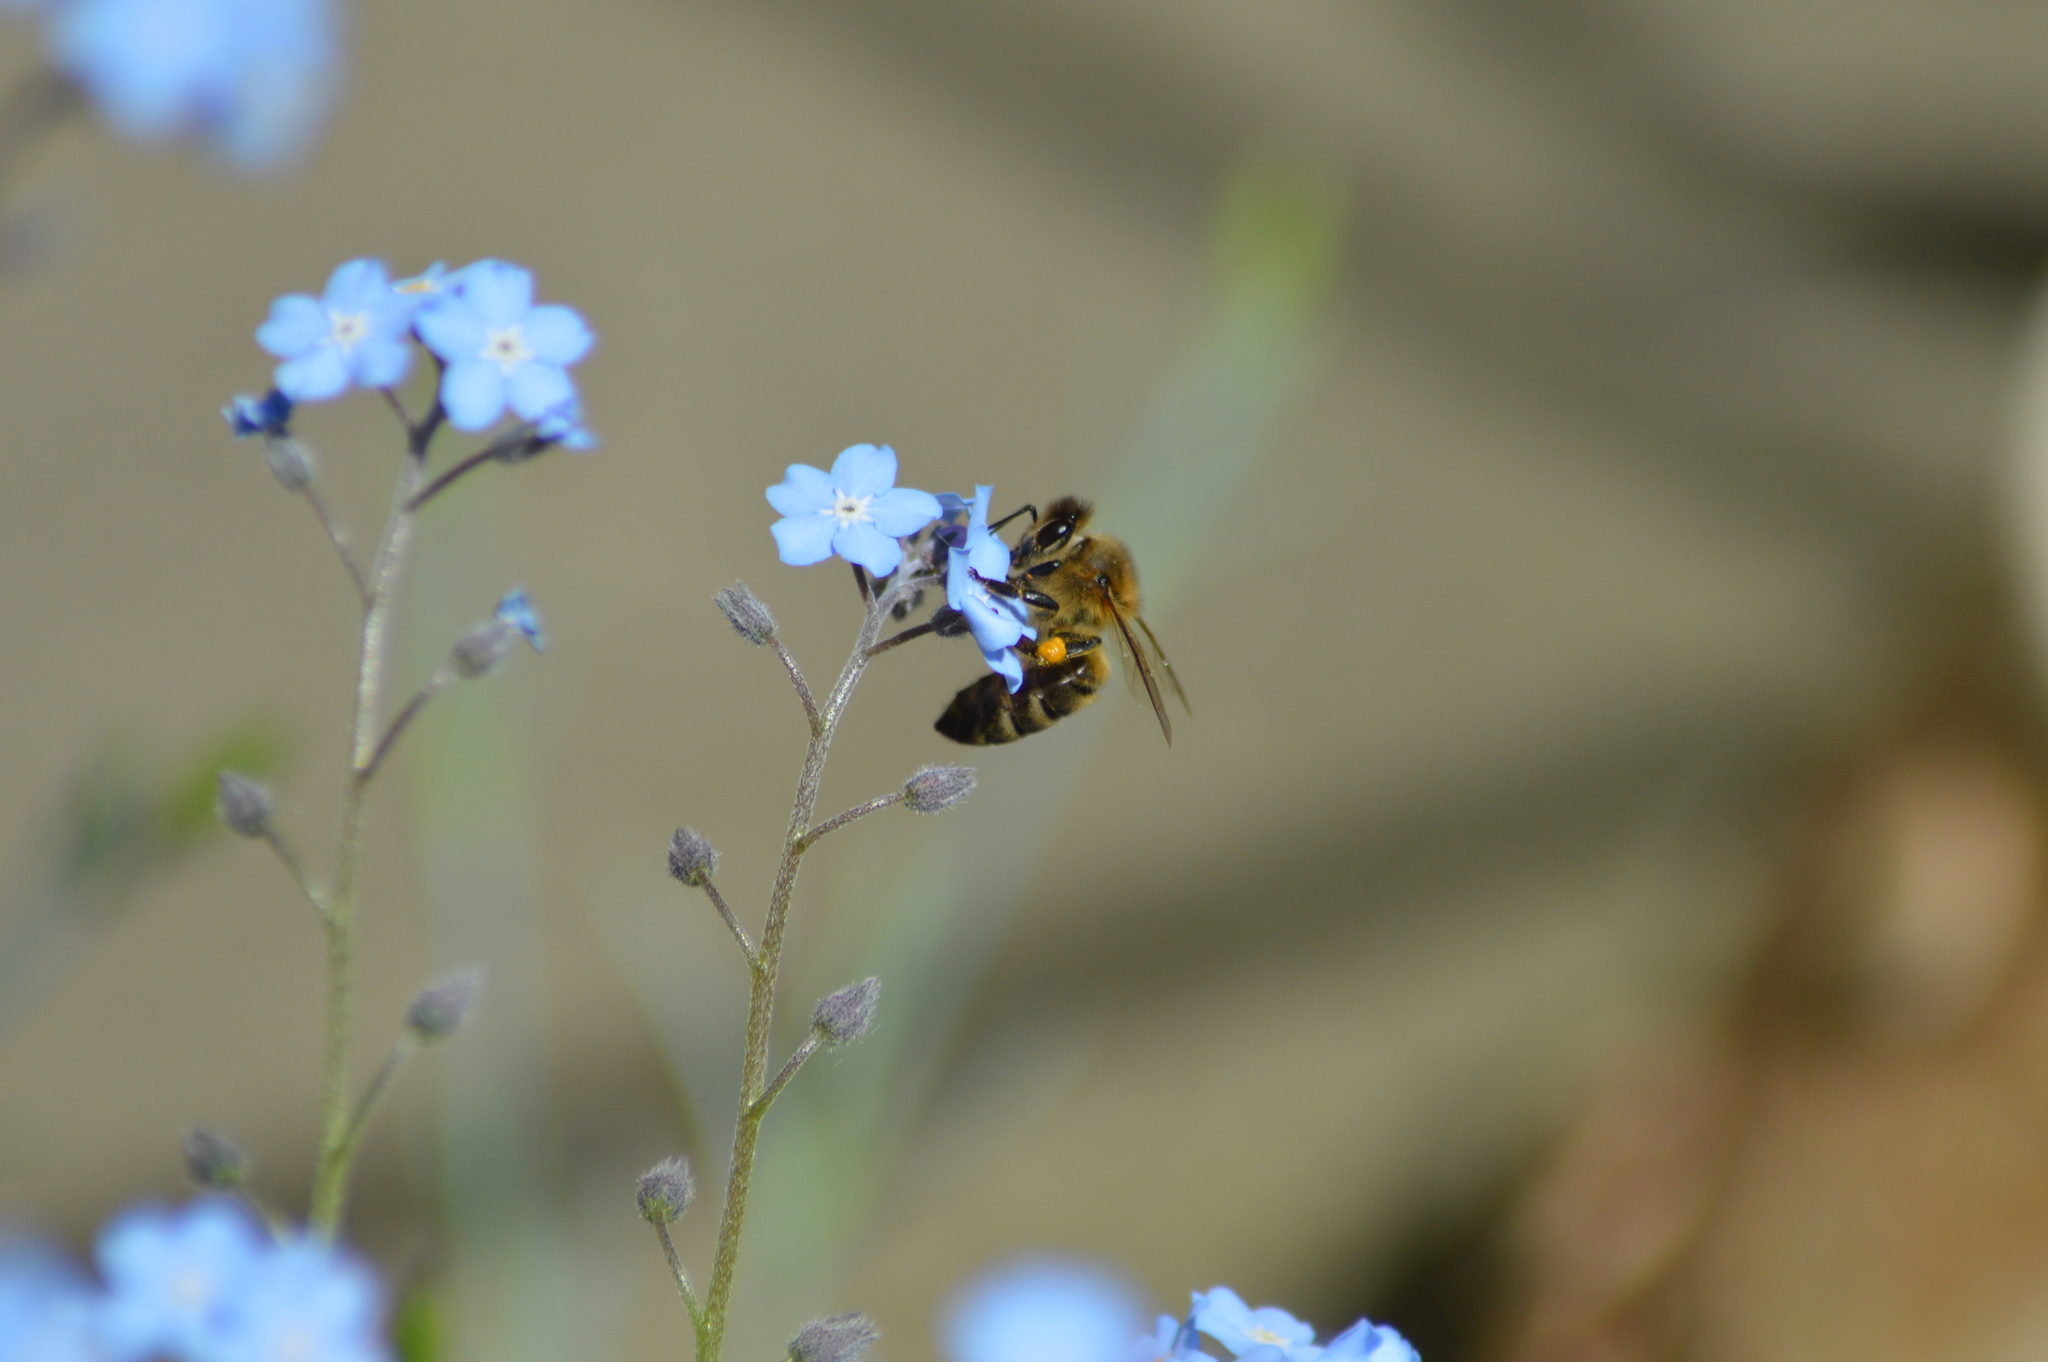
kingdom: Animalia
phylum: Arthropoda
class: Insecta
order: Hymenoptera
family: Apidae
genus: Apis
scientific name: Apis mellifera
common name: Honey bee
